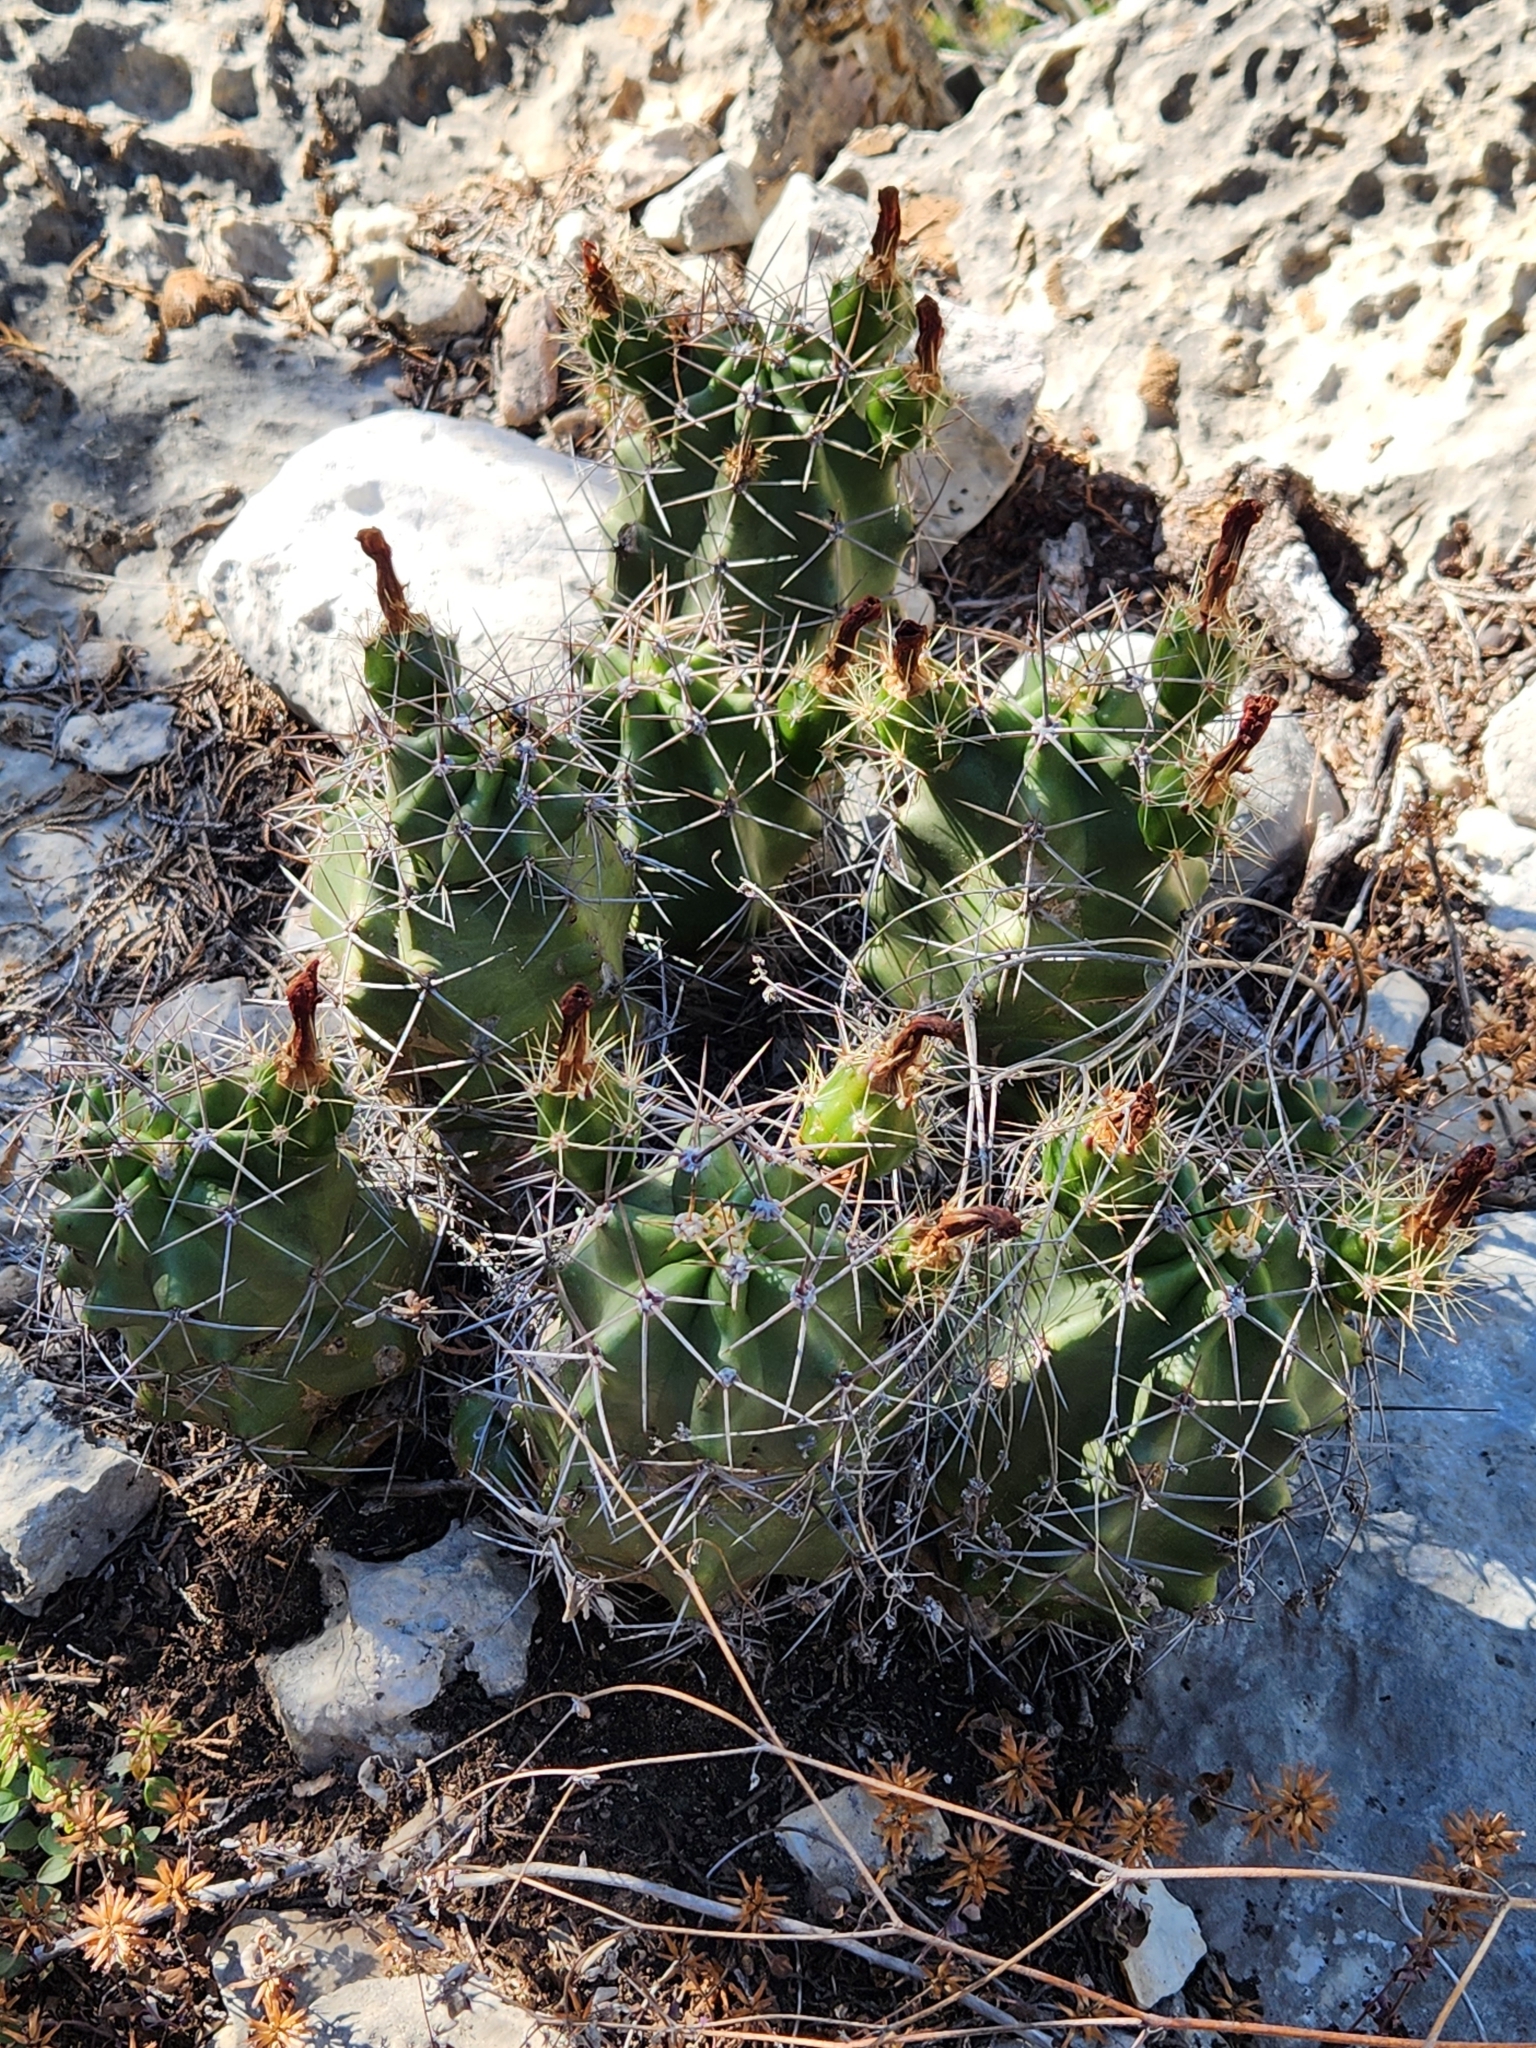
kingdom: Plantae
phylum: Tracheophyta
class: Magnoliopsida
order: Caryophyllales
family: Cactaceae
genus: Echinocereus
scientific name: Echinocereus coccineus
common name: Scarlet hedgehog cactus
